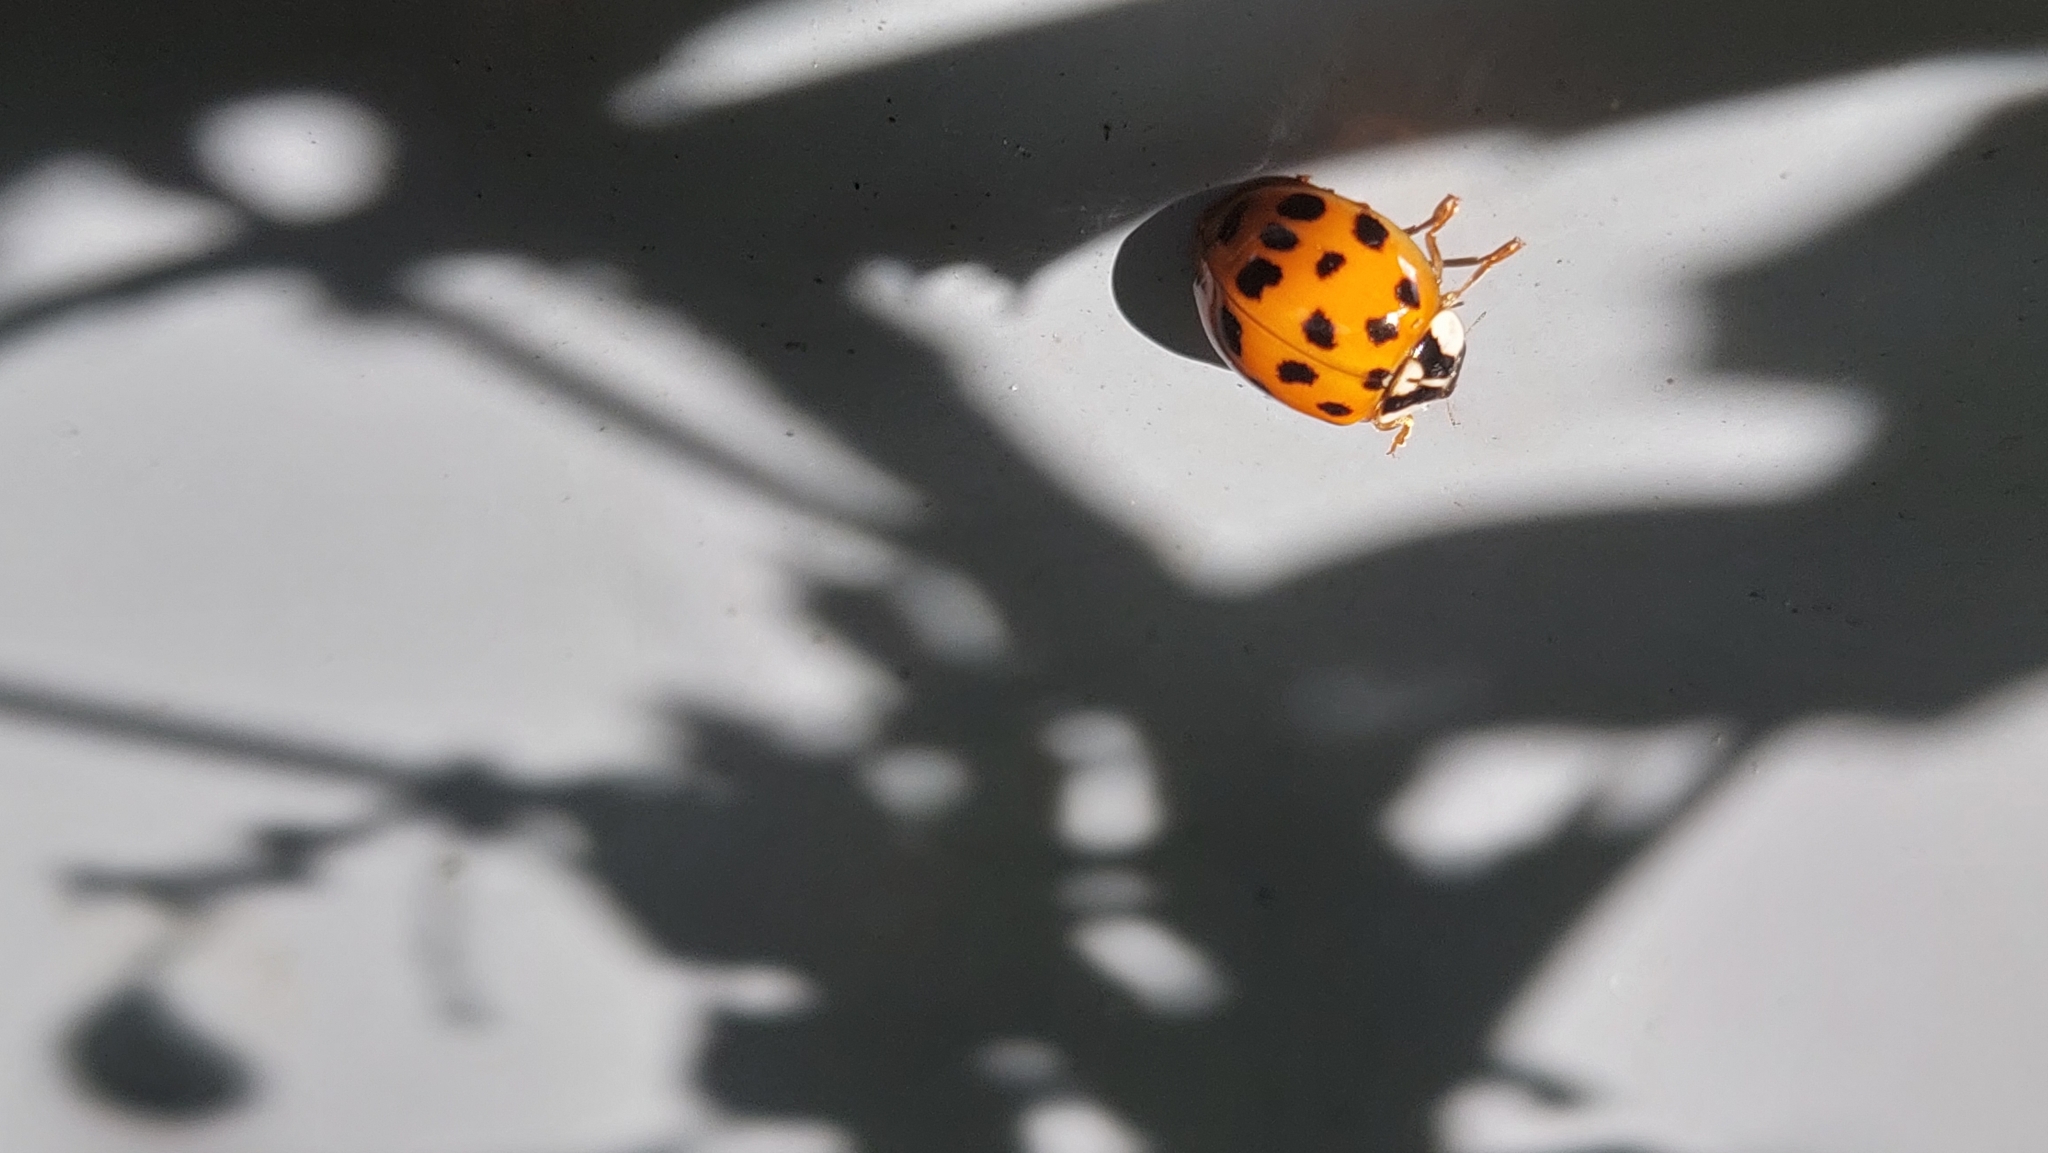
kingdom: Animalia
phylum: Arthropoda
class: Insecta
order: Coleoptera
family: Coccinellidae
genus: Harmonia
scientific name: Harmonia axyridis
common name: Harlequin ladybird
